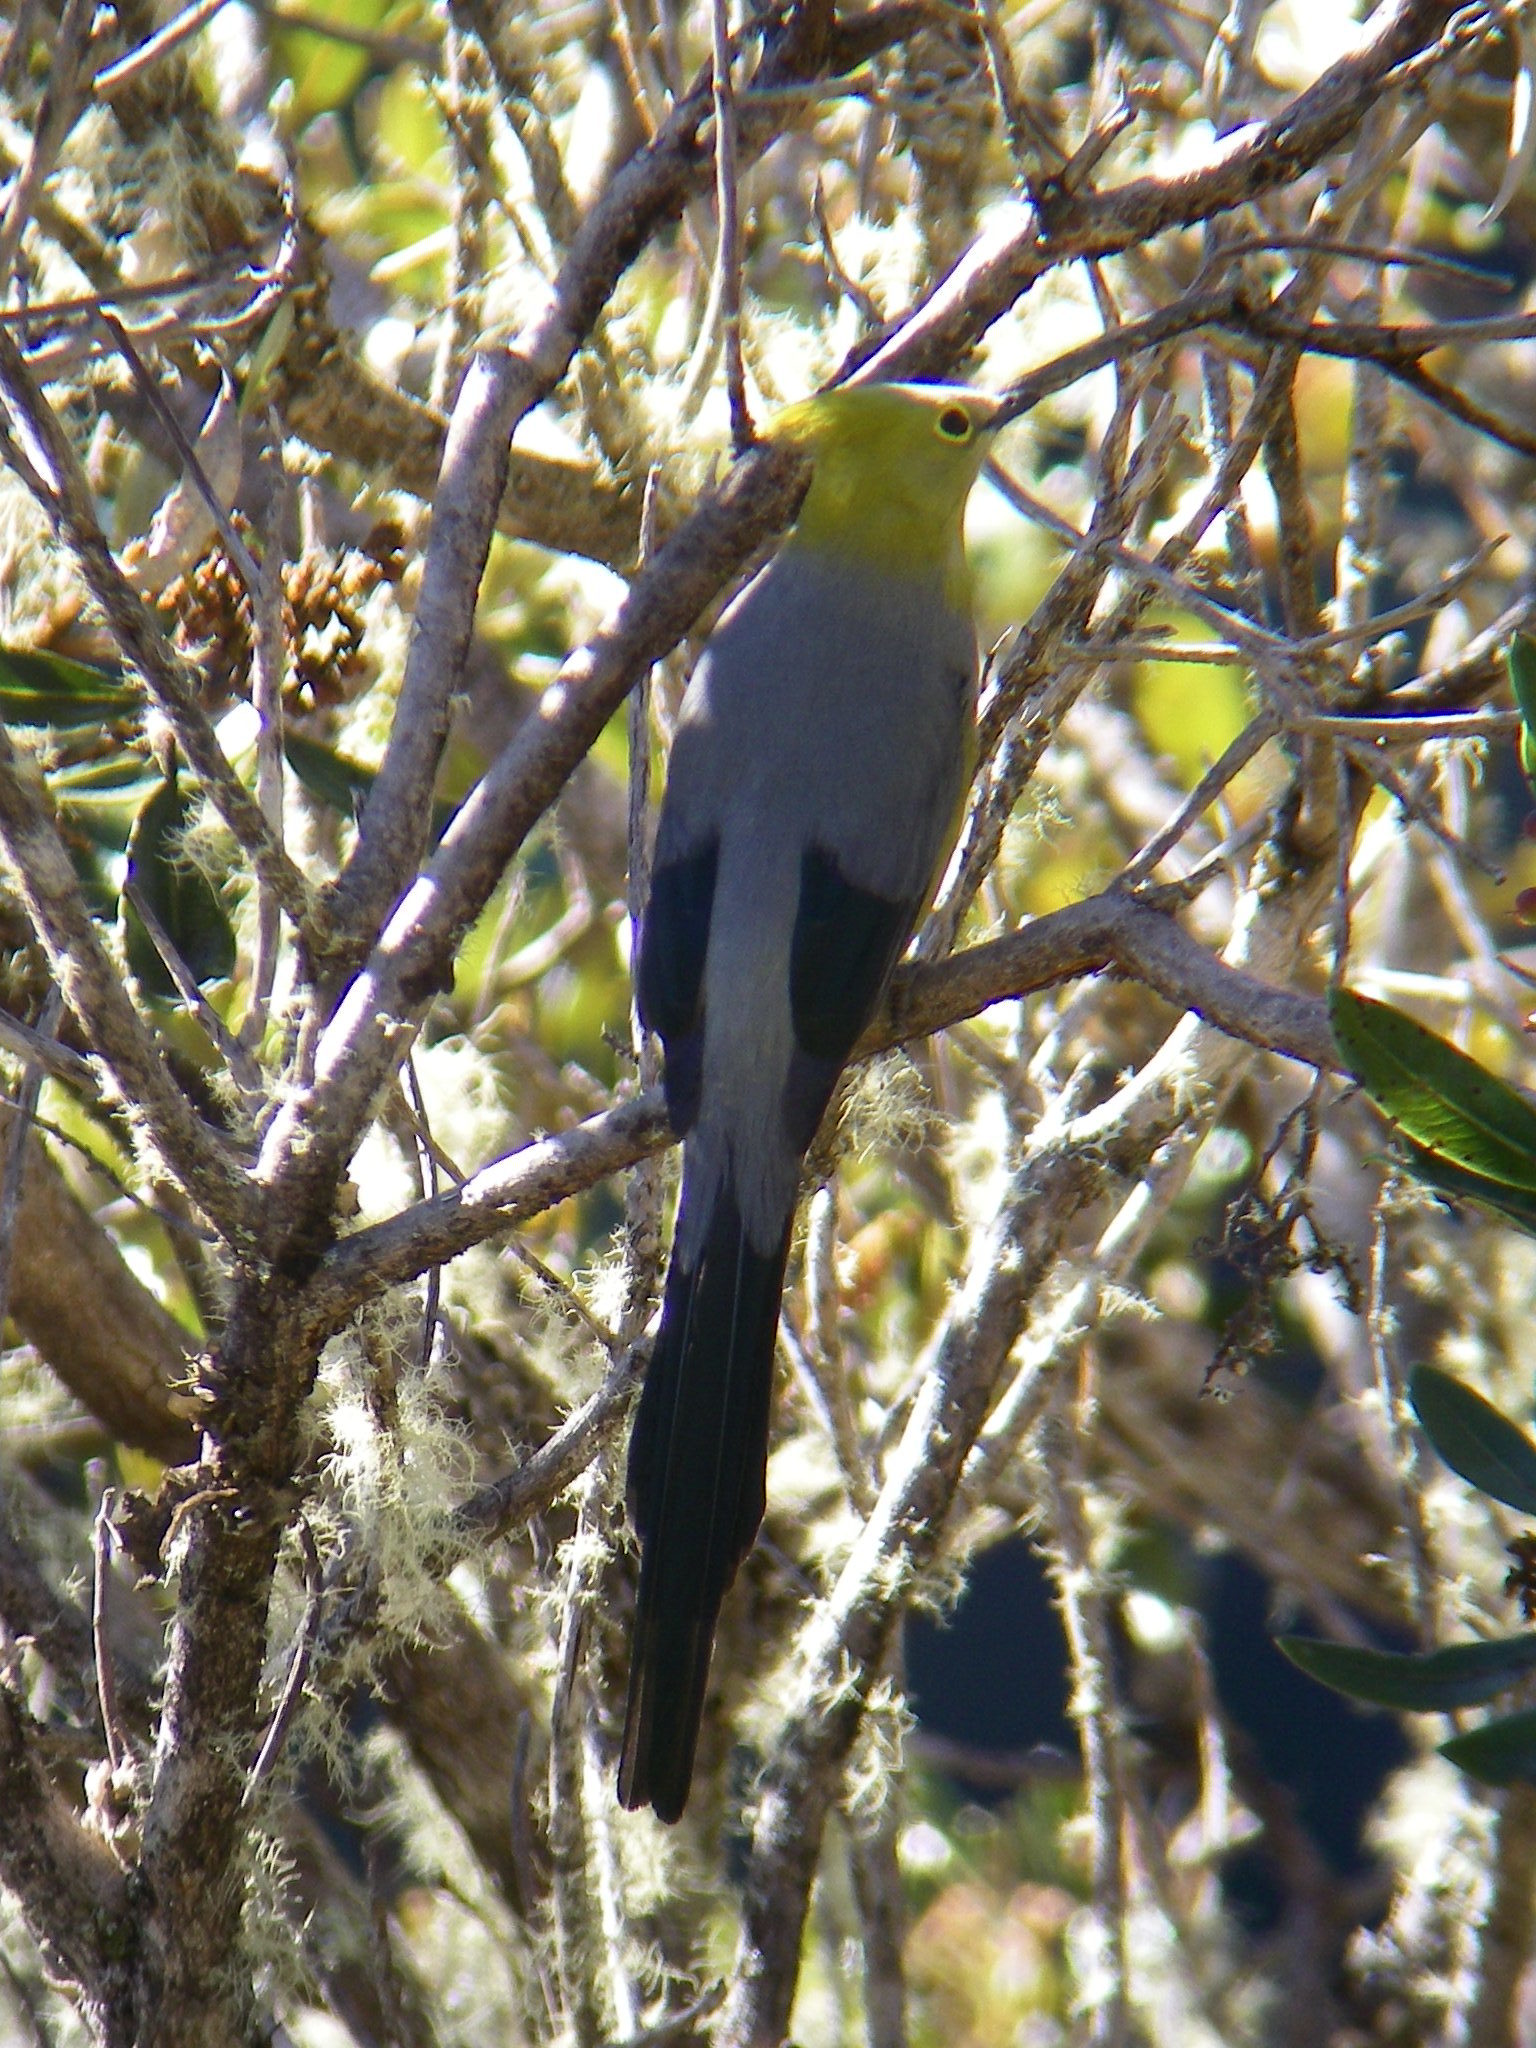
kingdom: Animalia
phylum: Chordata
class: Aves
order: Passeriformes
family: Ptilogonatidae
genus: Ptilogonys
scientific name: Ptilogonys caudatus
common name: Long-tailed silky-flycatcher
